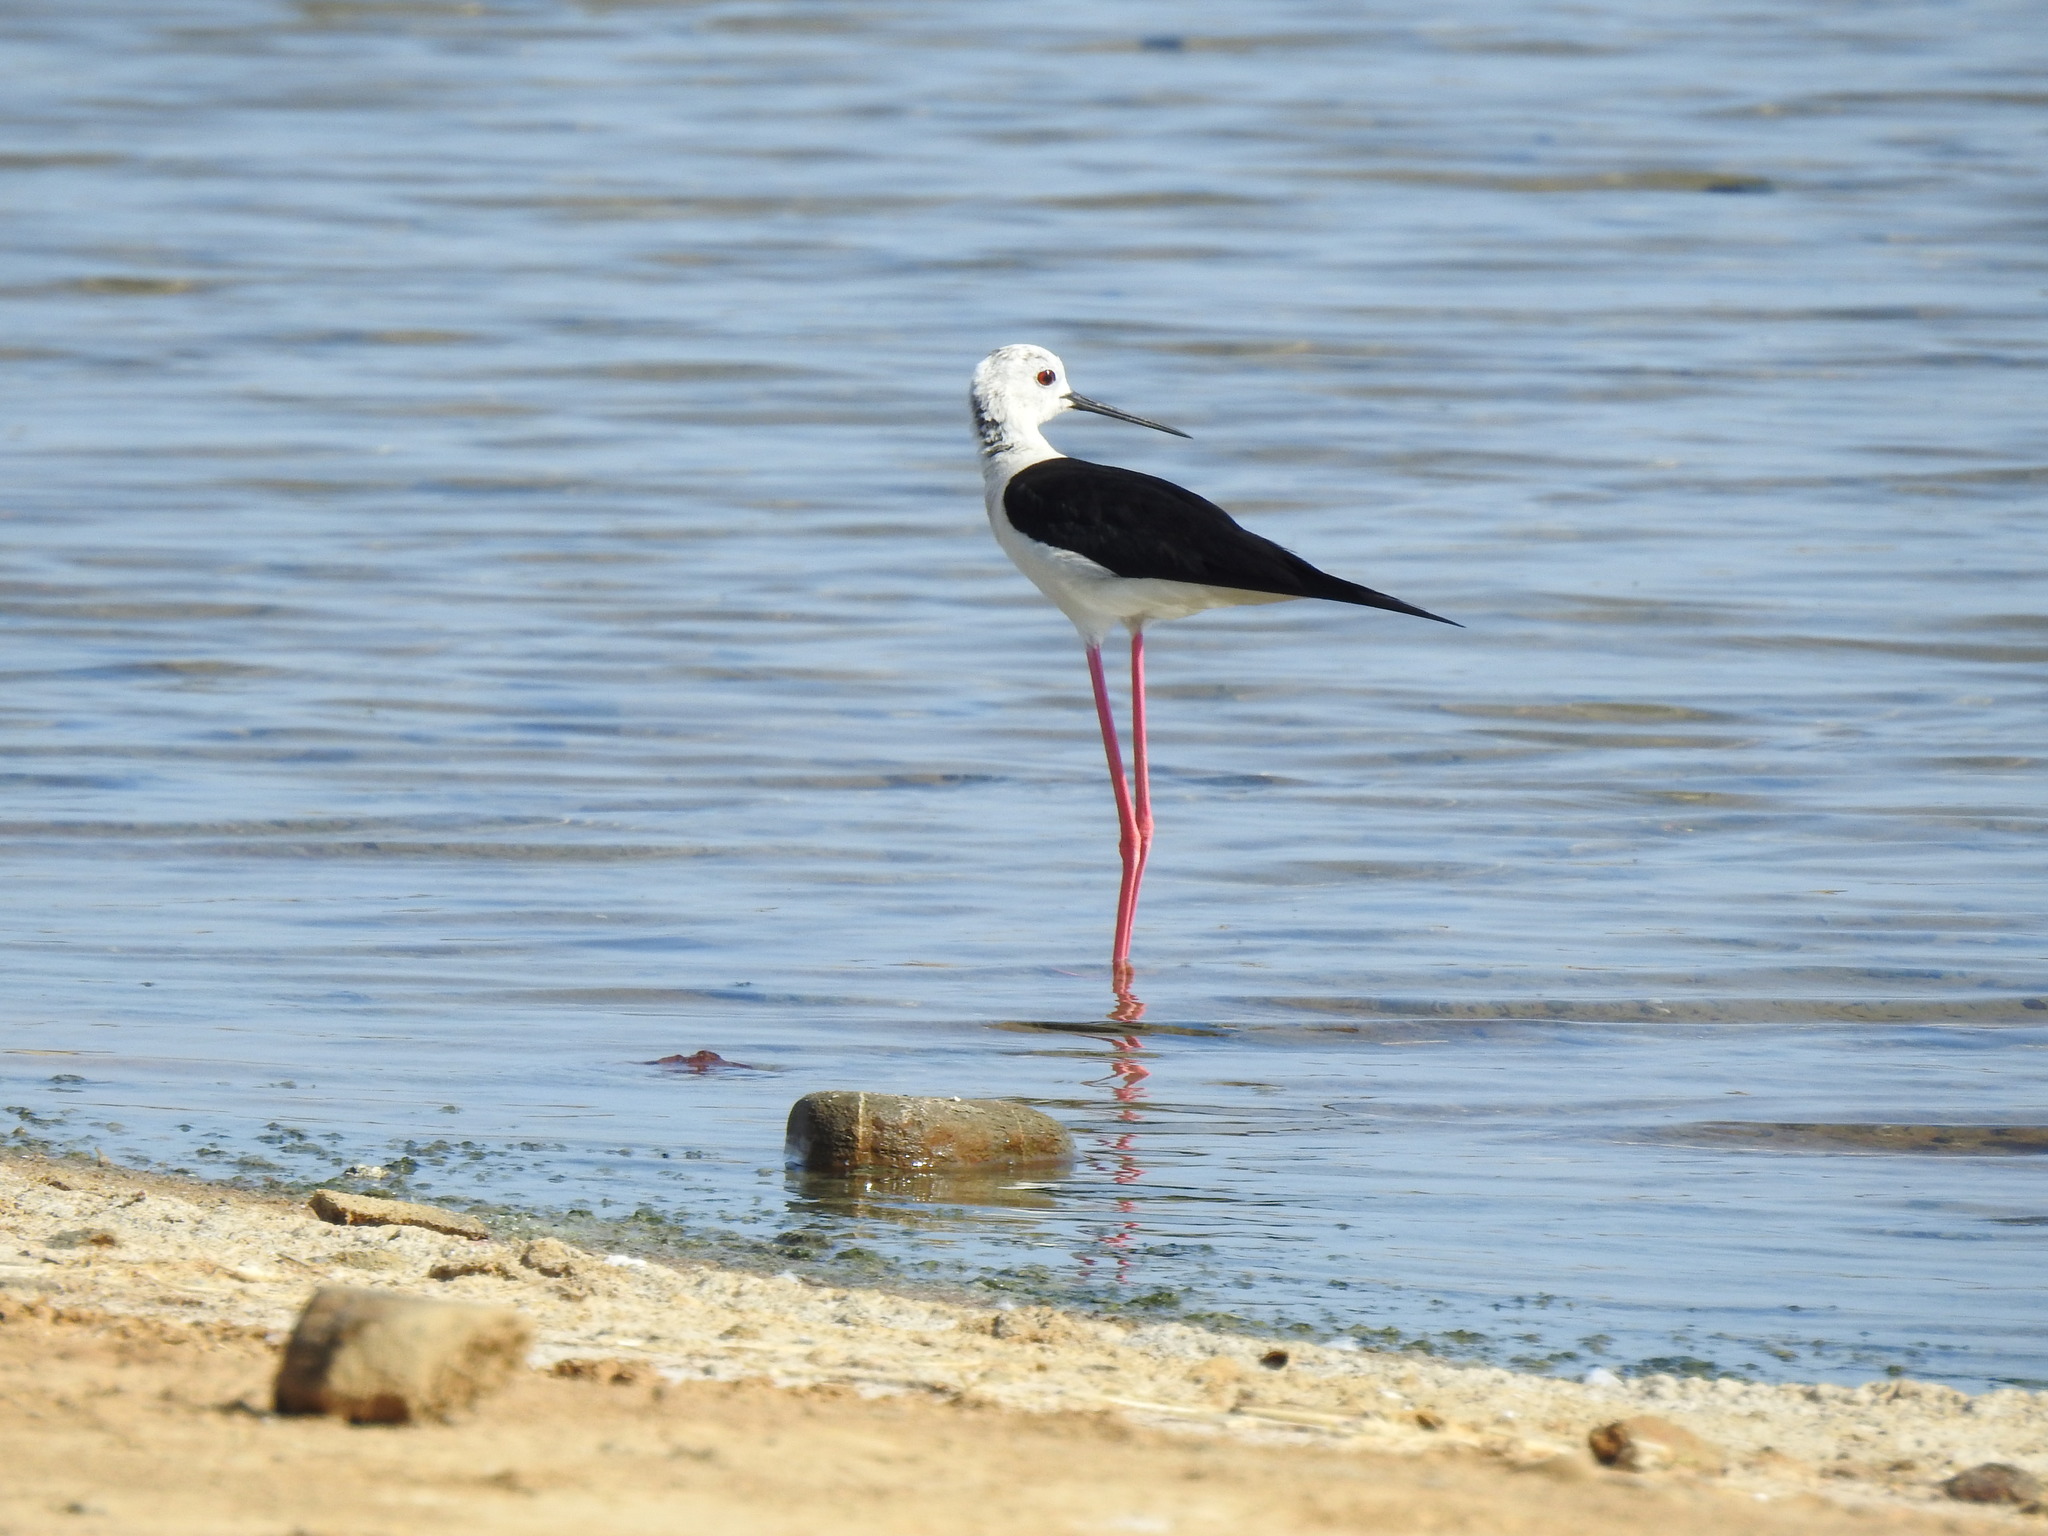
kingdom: Animalia
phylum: Chordata
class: Aves
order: Charadriiformes
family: Recurvirostridae
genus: Himantopus
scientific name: Himantopus himantopus
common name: Black-winged stilt
